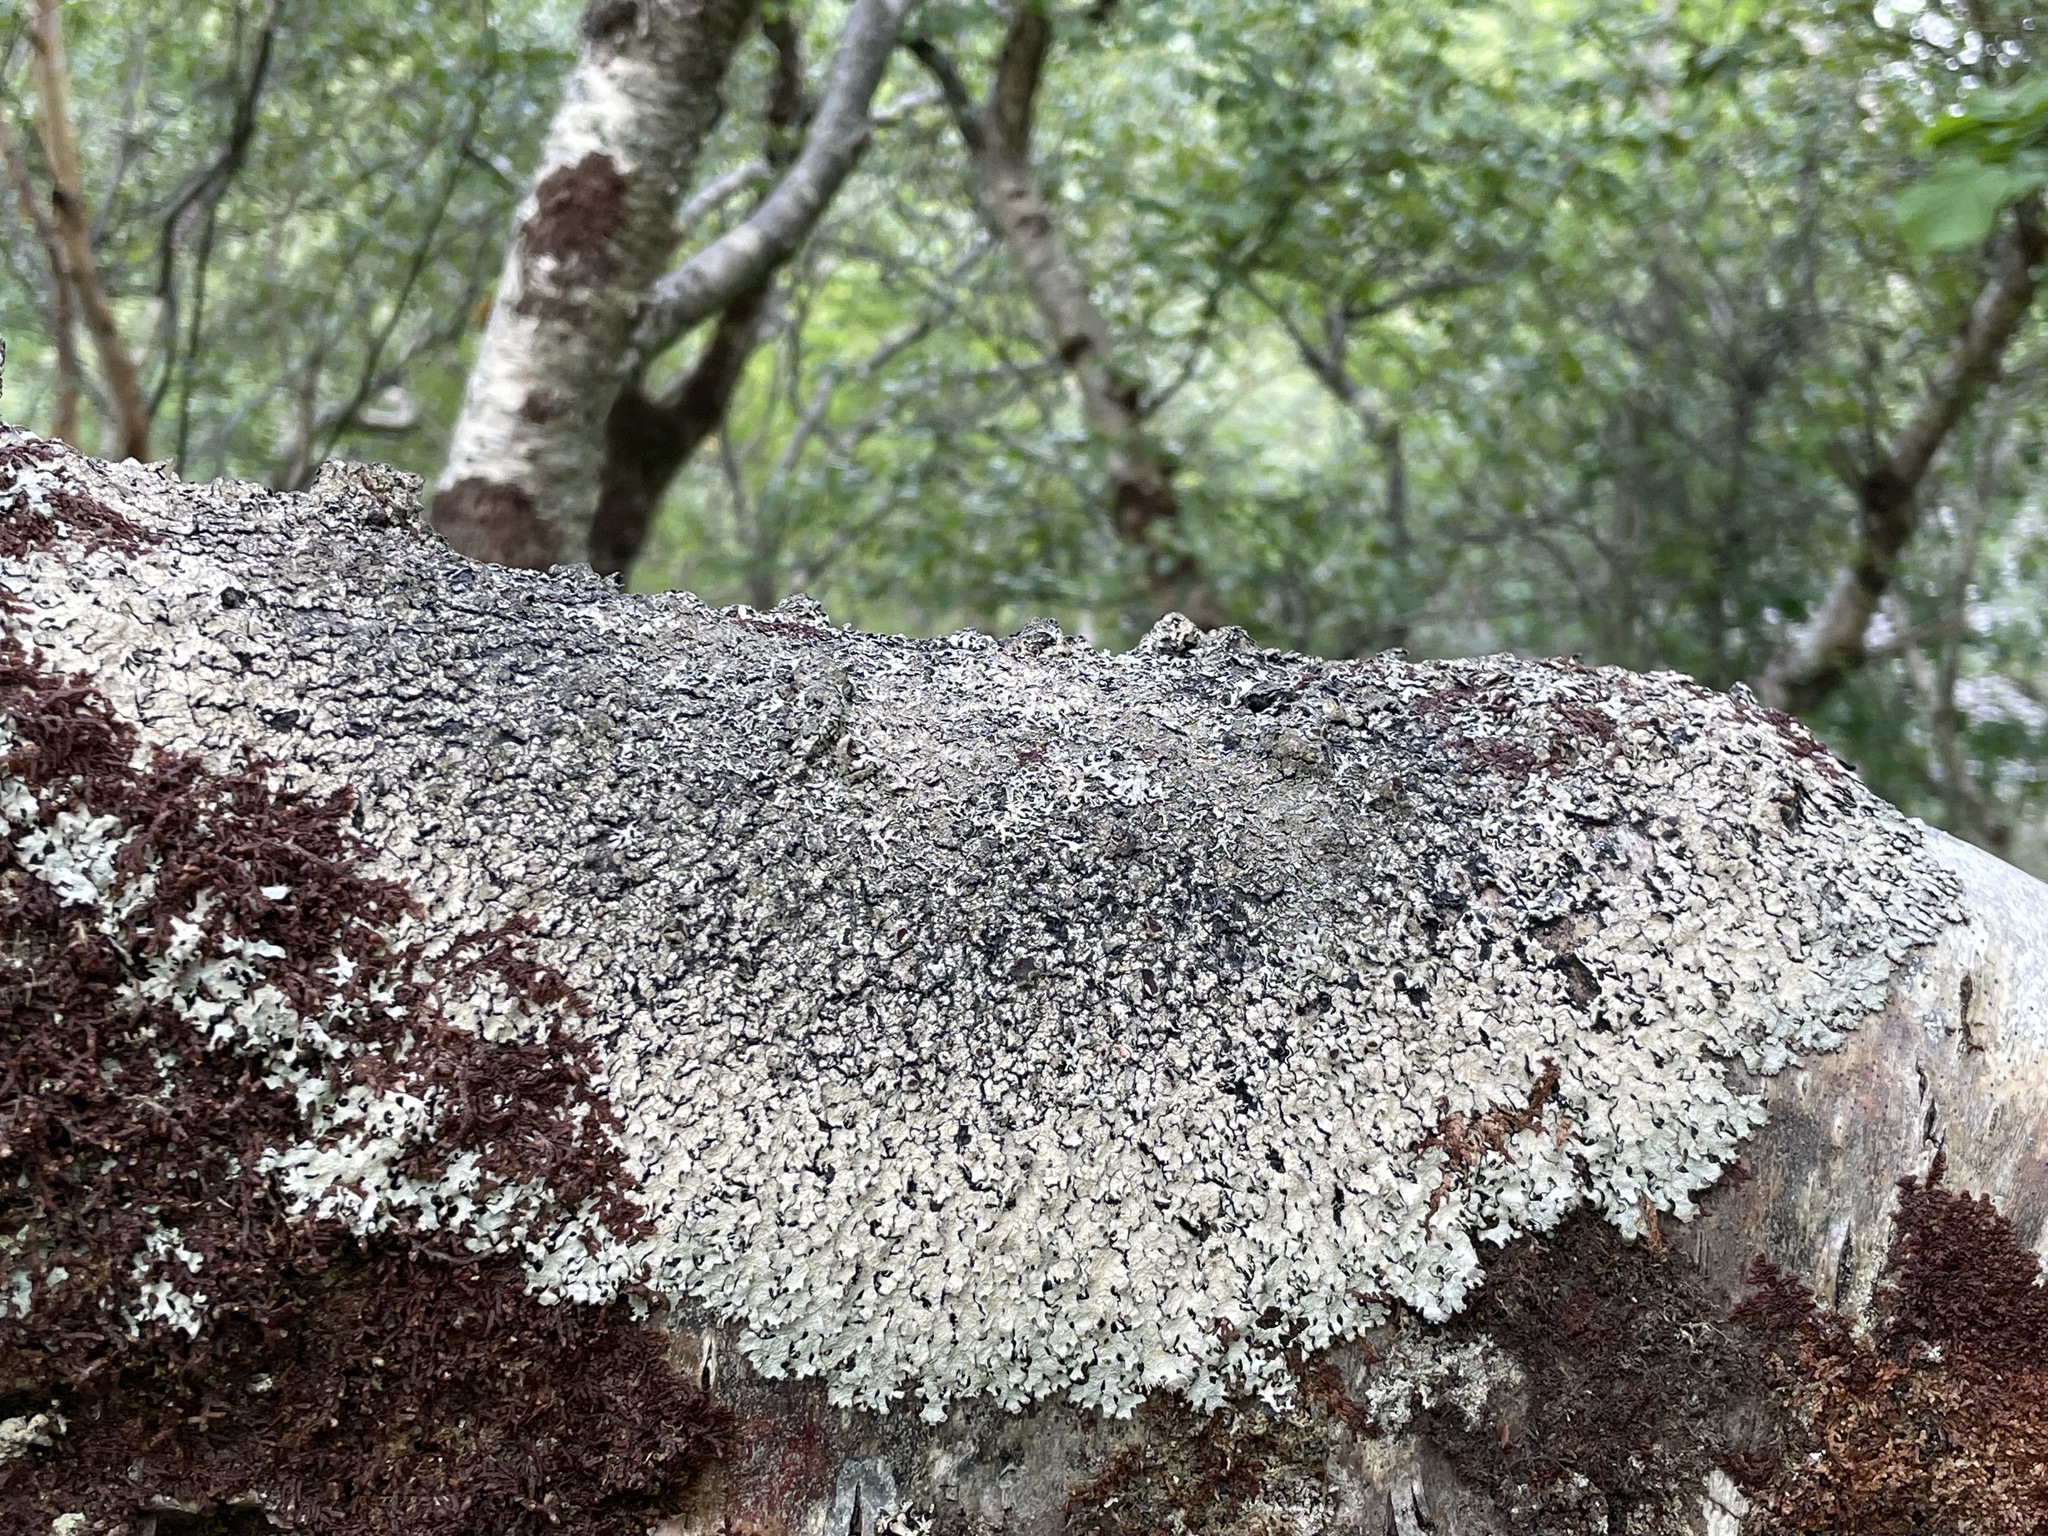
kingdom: Fungi
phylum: Ascomycota
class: Lecanoromycetes
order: Lecanorales
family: Parmeliaceae
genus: Parmelia
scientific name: Parmelia saxatilis
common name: Salted shield lichen
